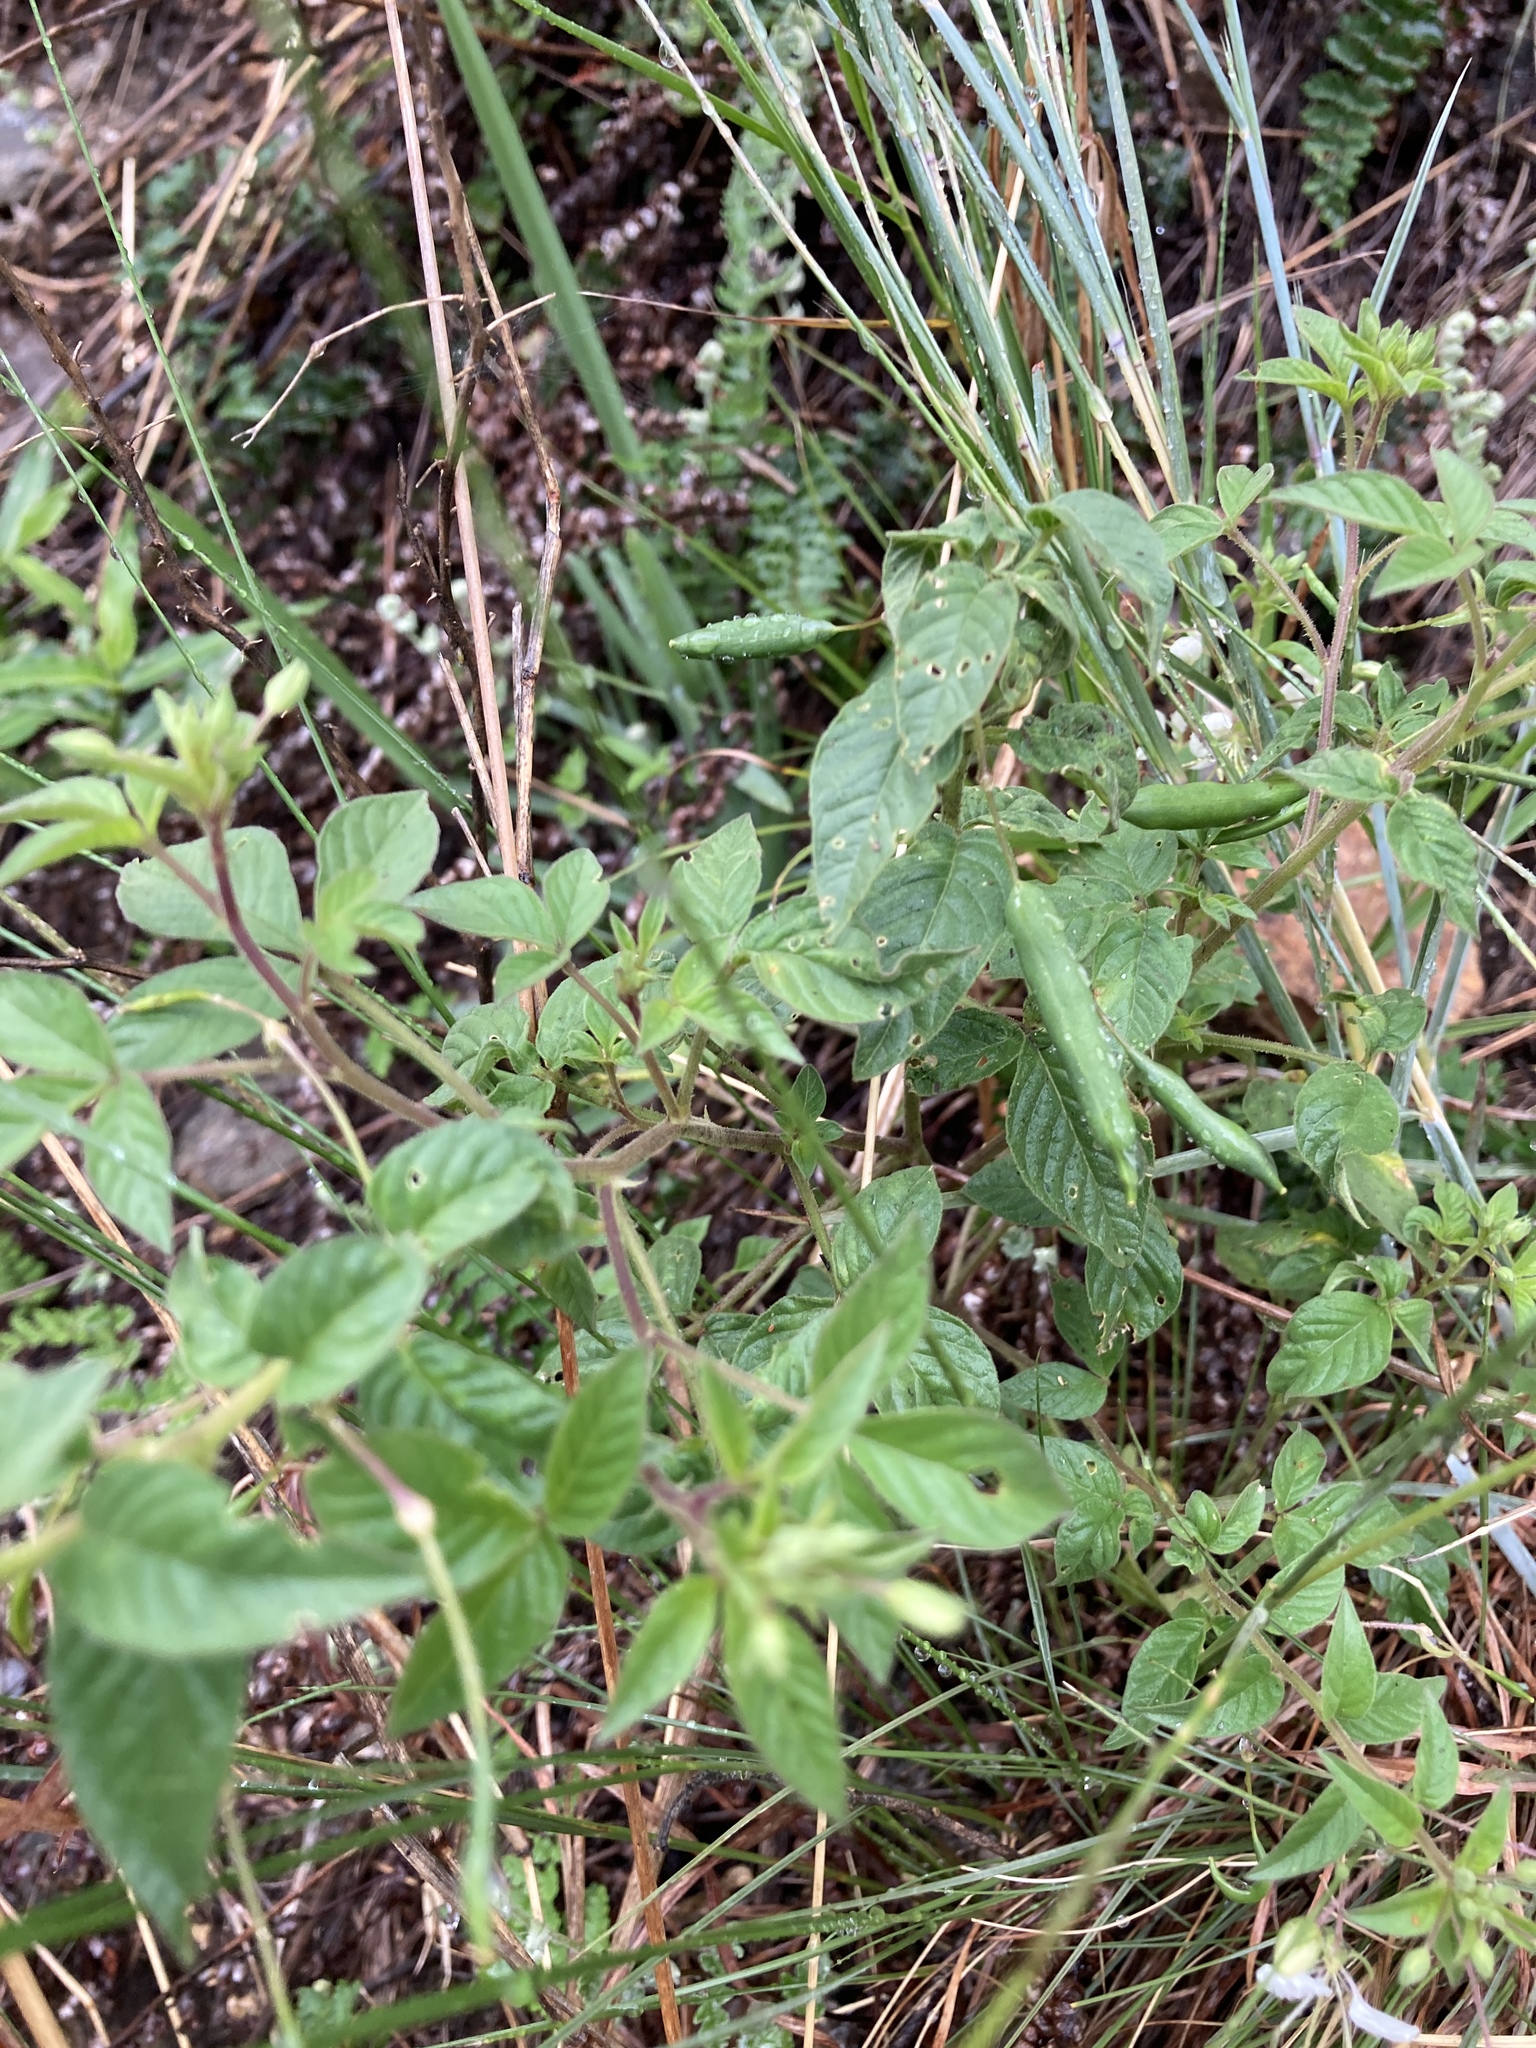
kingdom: Plantae
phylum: Tracheophyta
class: Magnoliopsida
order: Brassicales
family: Cleomaceae
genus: Tarenaya
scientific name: Tarenaya cordobensis
